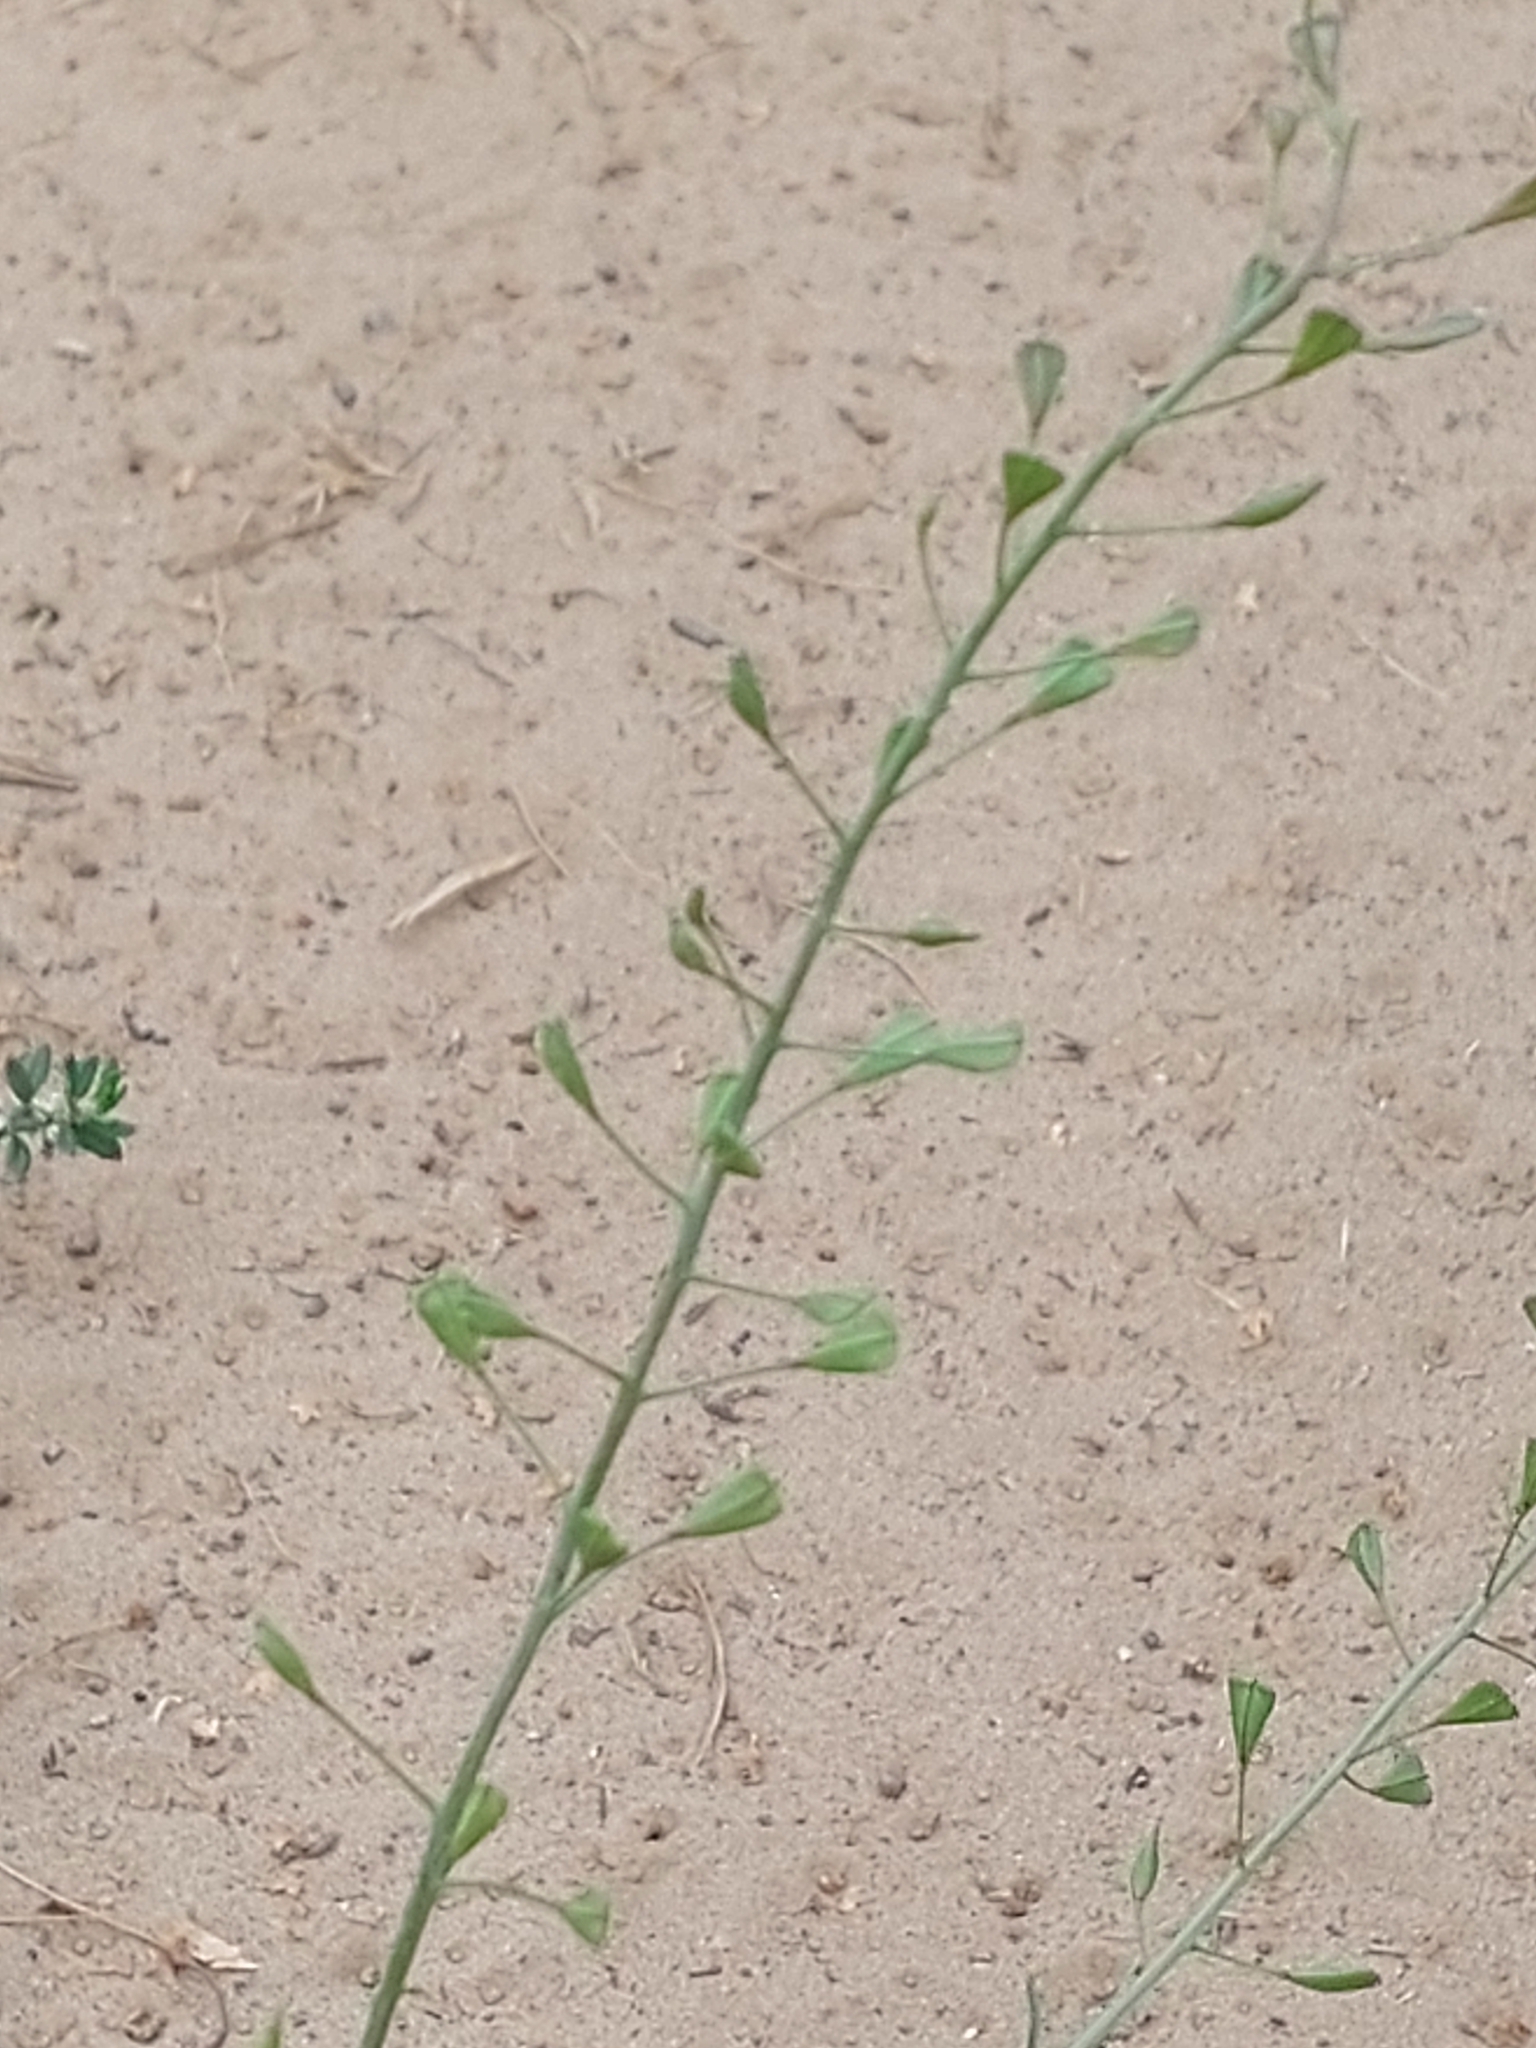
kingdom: Plantae
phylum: Tracheophyta
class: Magnoliopsida
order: Brassicales
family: Brassicaceae
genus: Capsella
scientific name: Capsella bursa-pastoris
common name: Shepherd's purse
